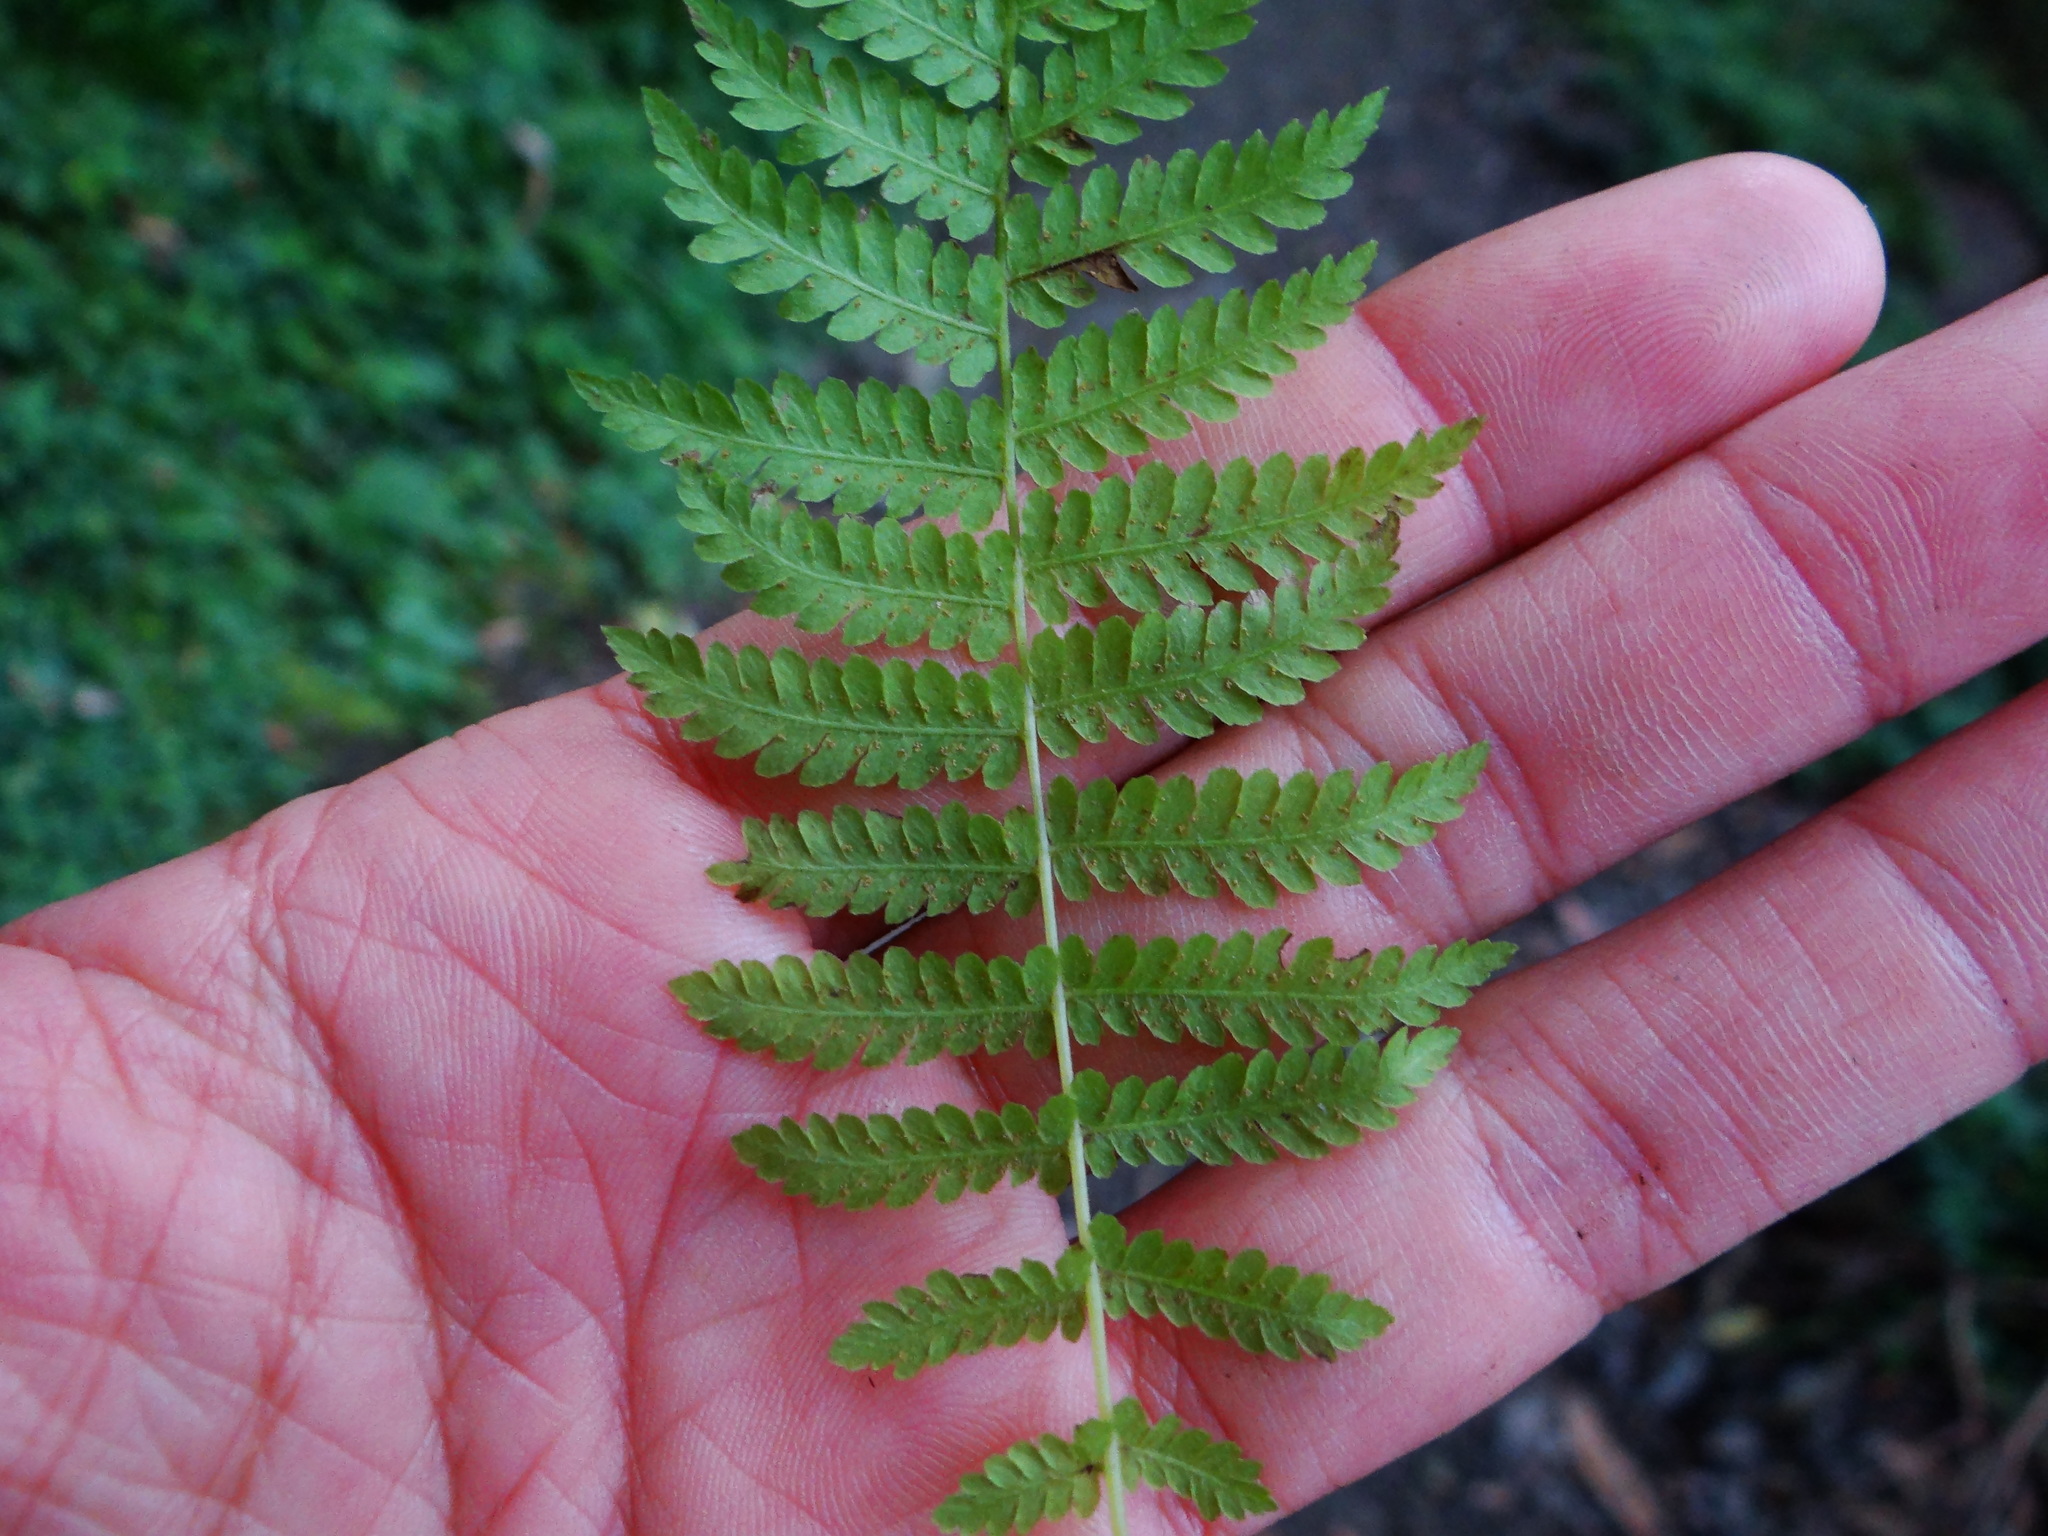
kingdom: Plantae
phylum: Tracheophyta
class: Polypodiopsida
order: Polypodiales
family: Thelypteridaceae
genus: Amauropelta
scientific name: Amauropelta beddomei
